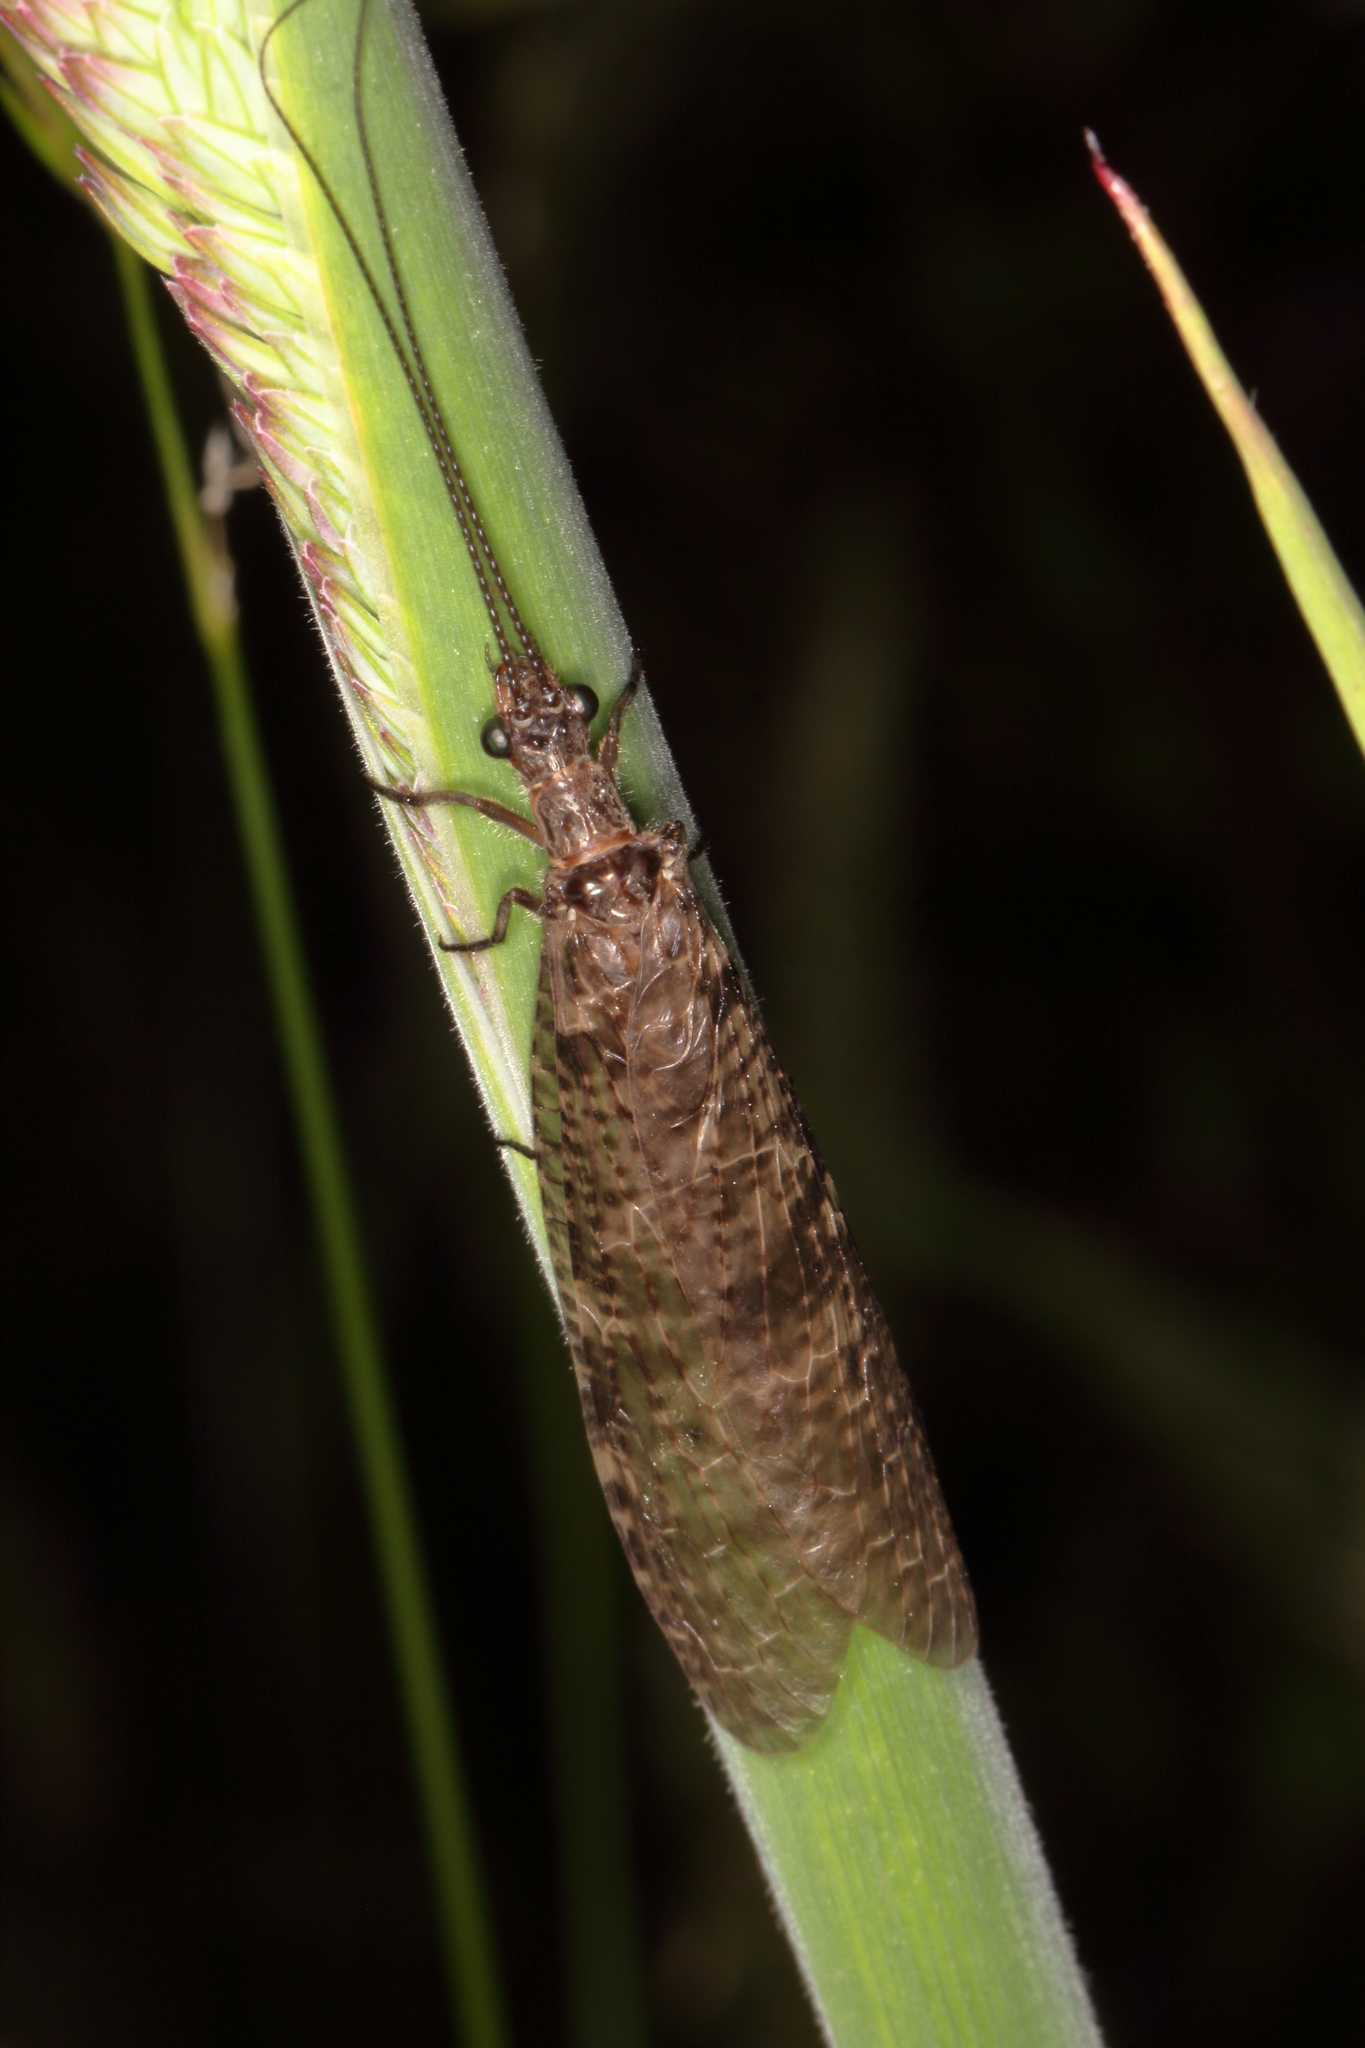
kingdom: Animalia
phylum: Arthropoda
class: Insecta
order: Megaloptera
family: Corydalidae
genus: Archichauliodes
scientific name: Archichauliodes diversus
